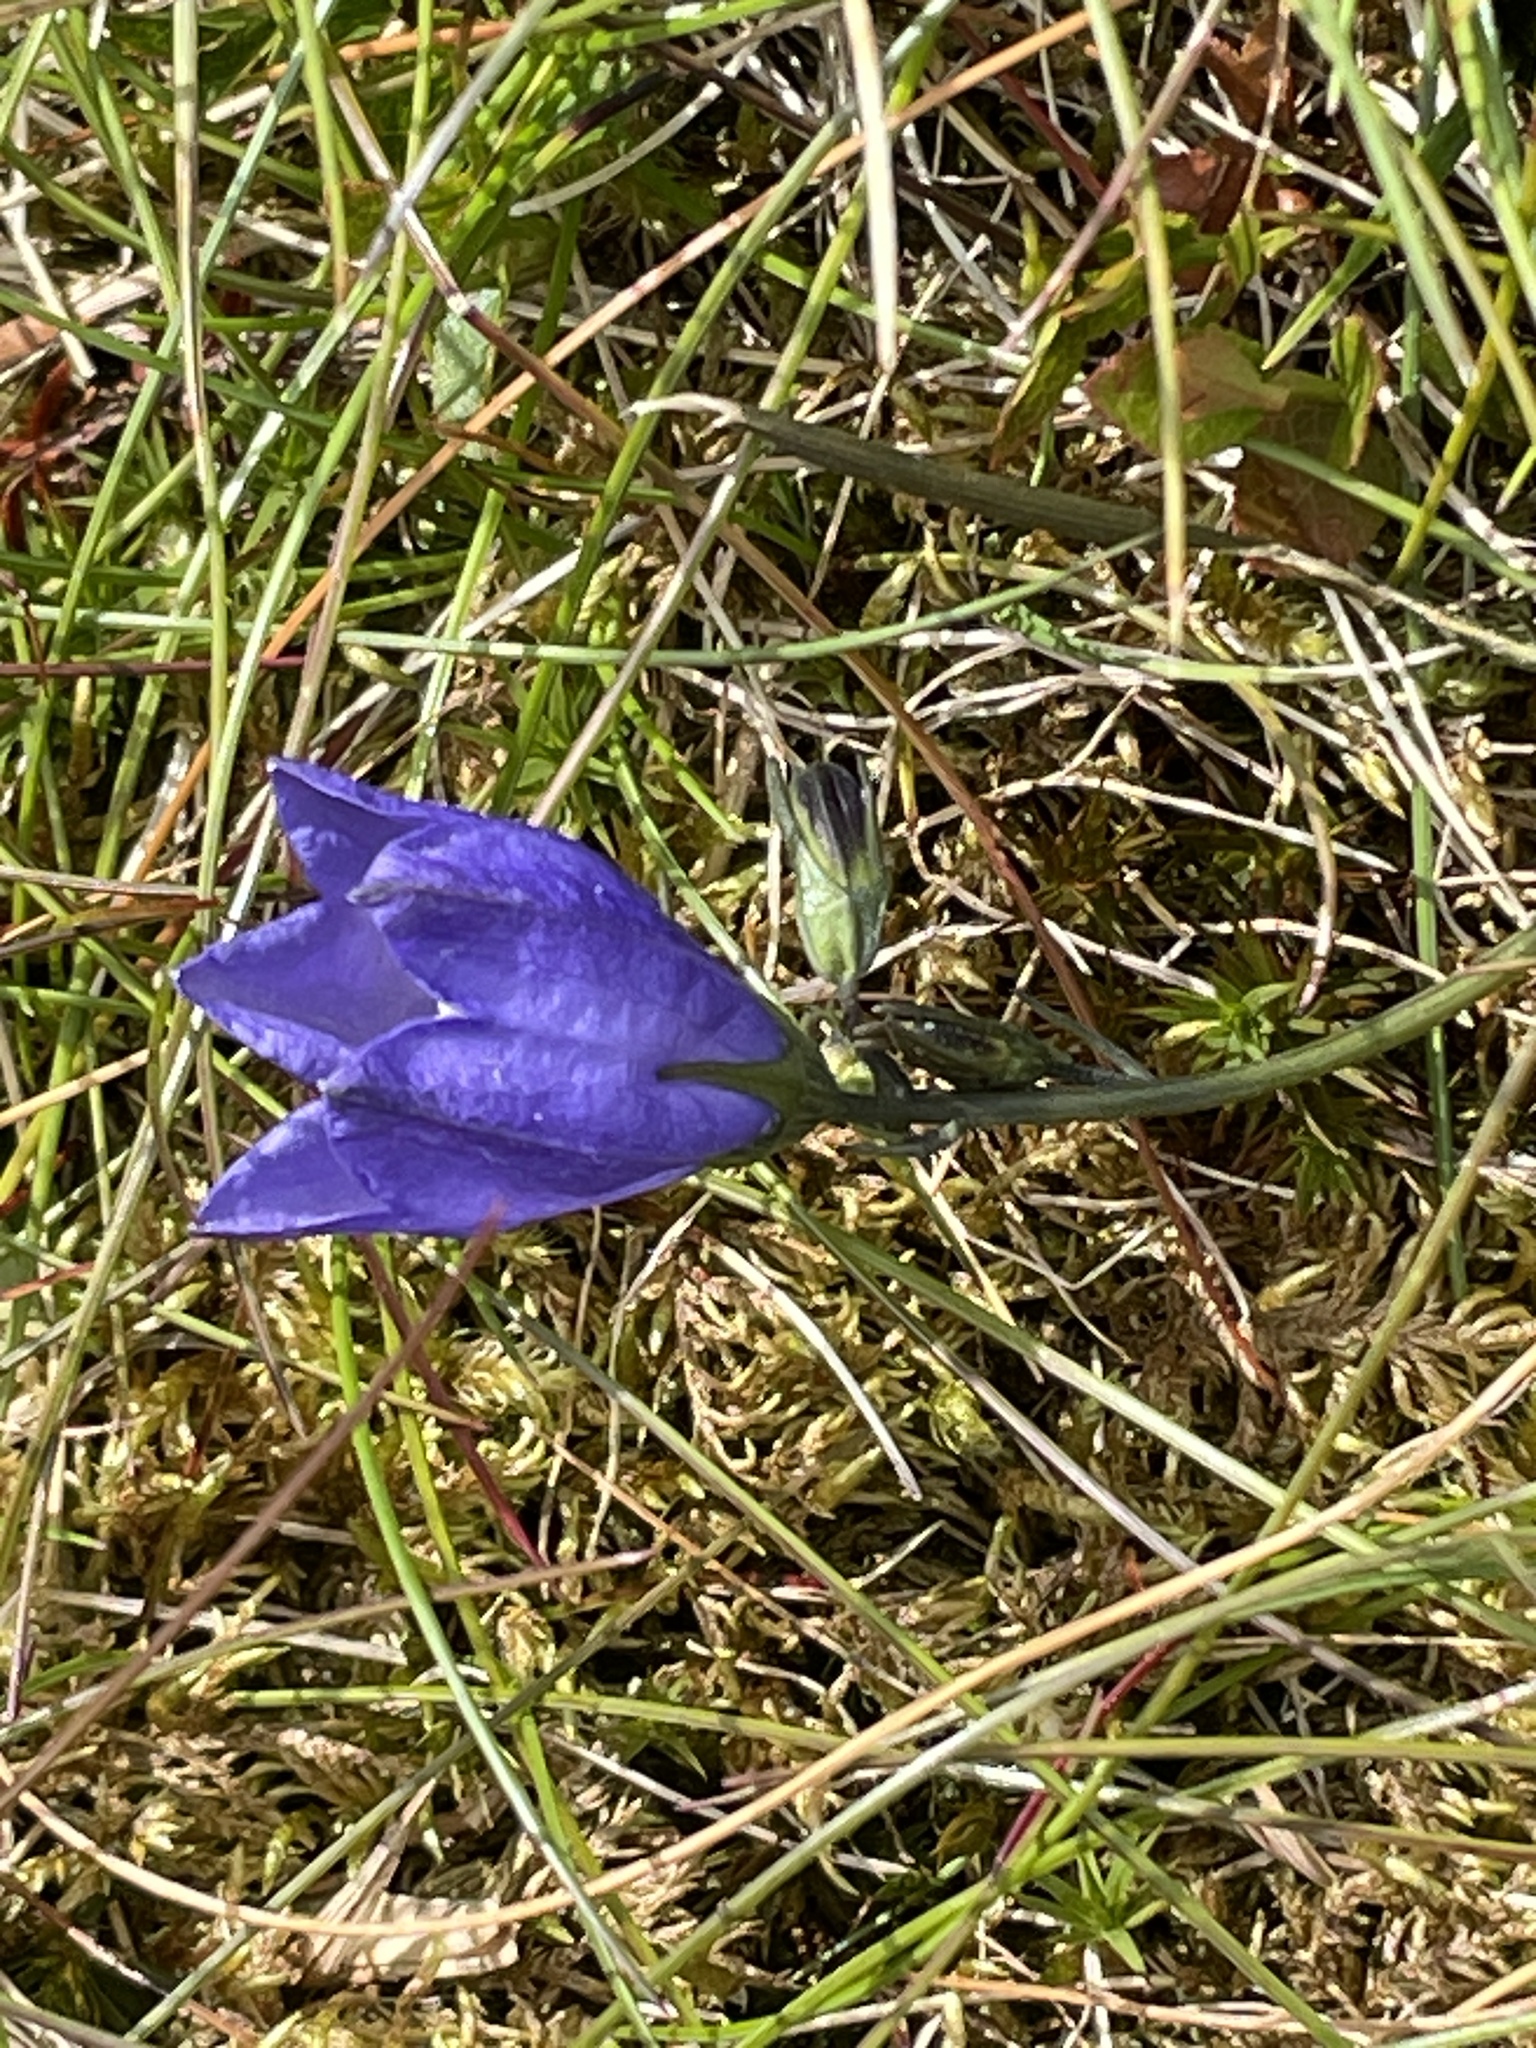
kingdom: Plantae
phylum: Tracheophyta
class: Magnoliopsida
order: Asterales
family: Campanulaceae
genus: Campanula
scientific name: Campanula rotundifolia
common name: Harebell
